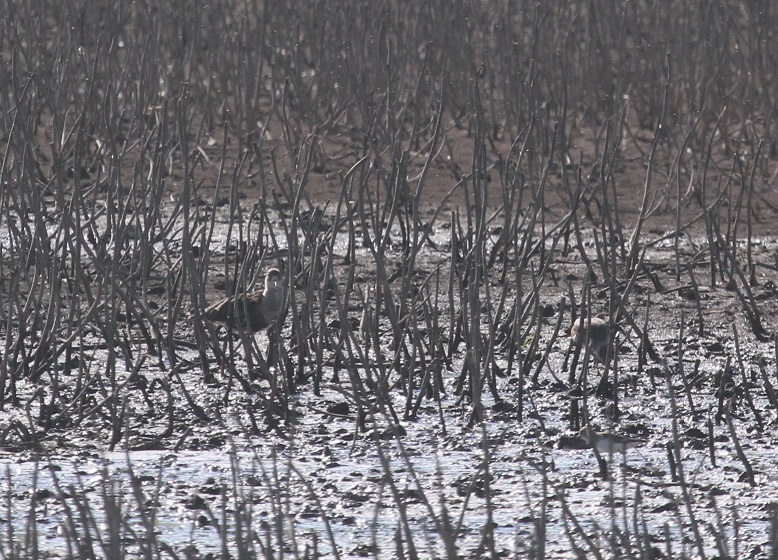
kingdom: Animalia
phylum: Chordata
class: Aves
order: Charadriiformes
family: Scolopacidae
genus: Calidris
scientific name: Calidris pugnax
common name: Ruff
